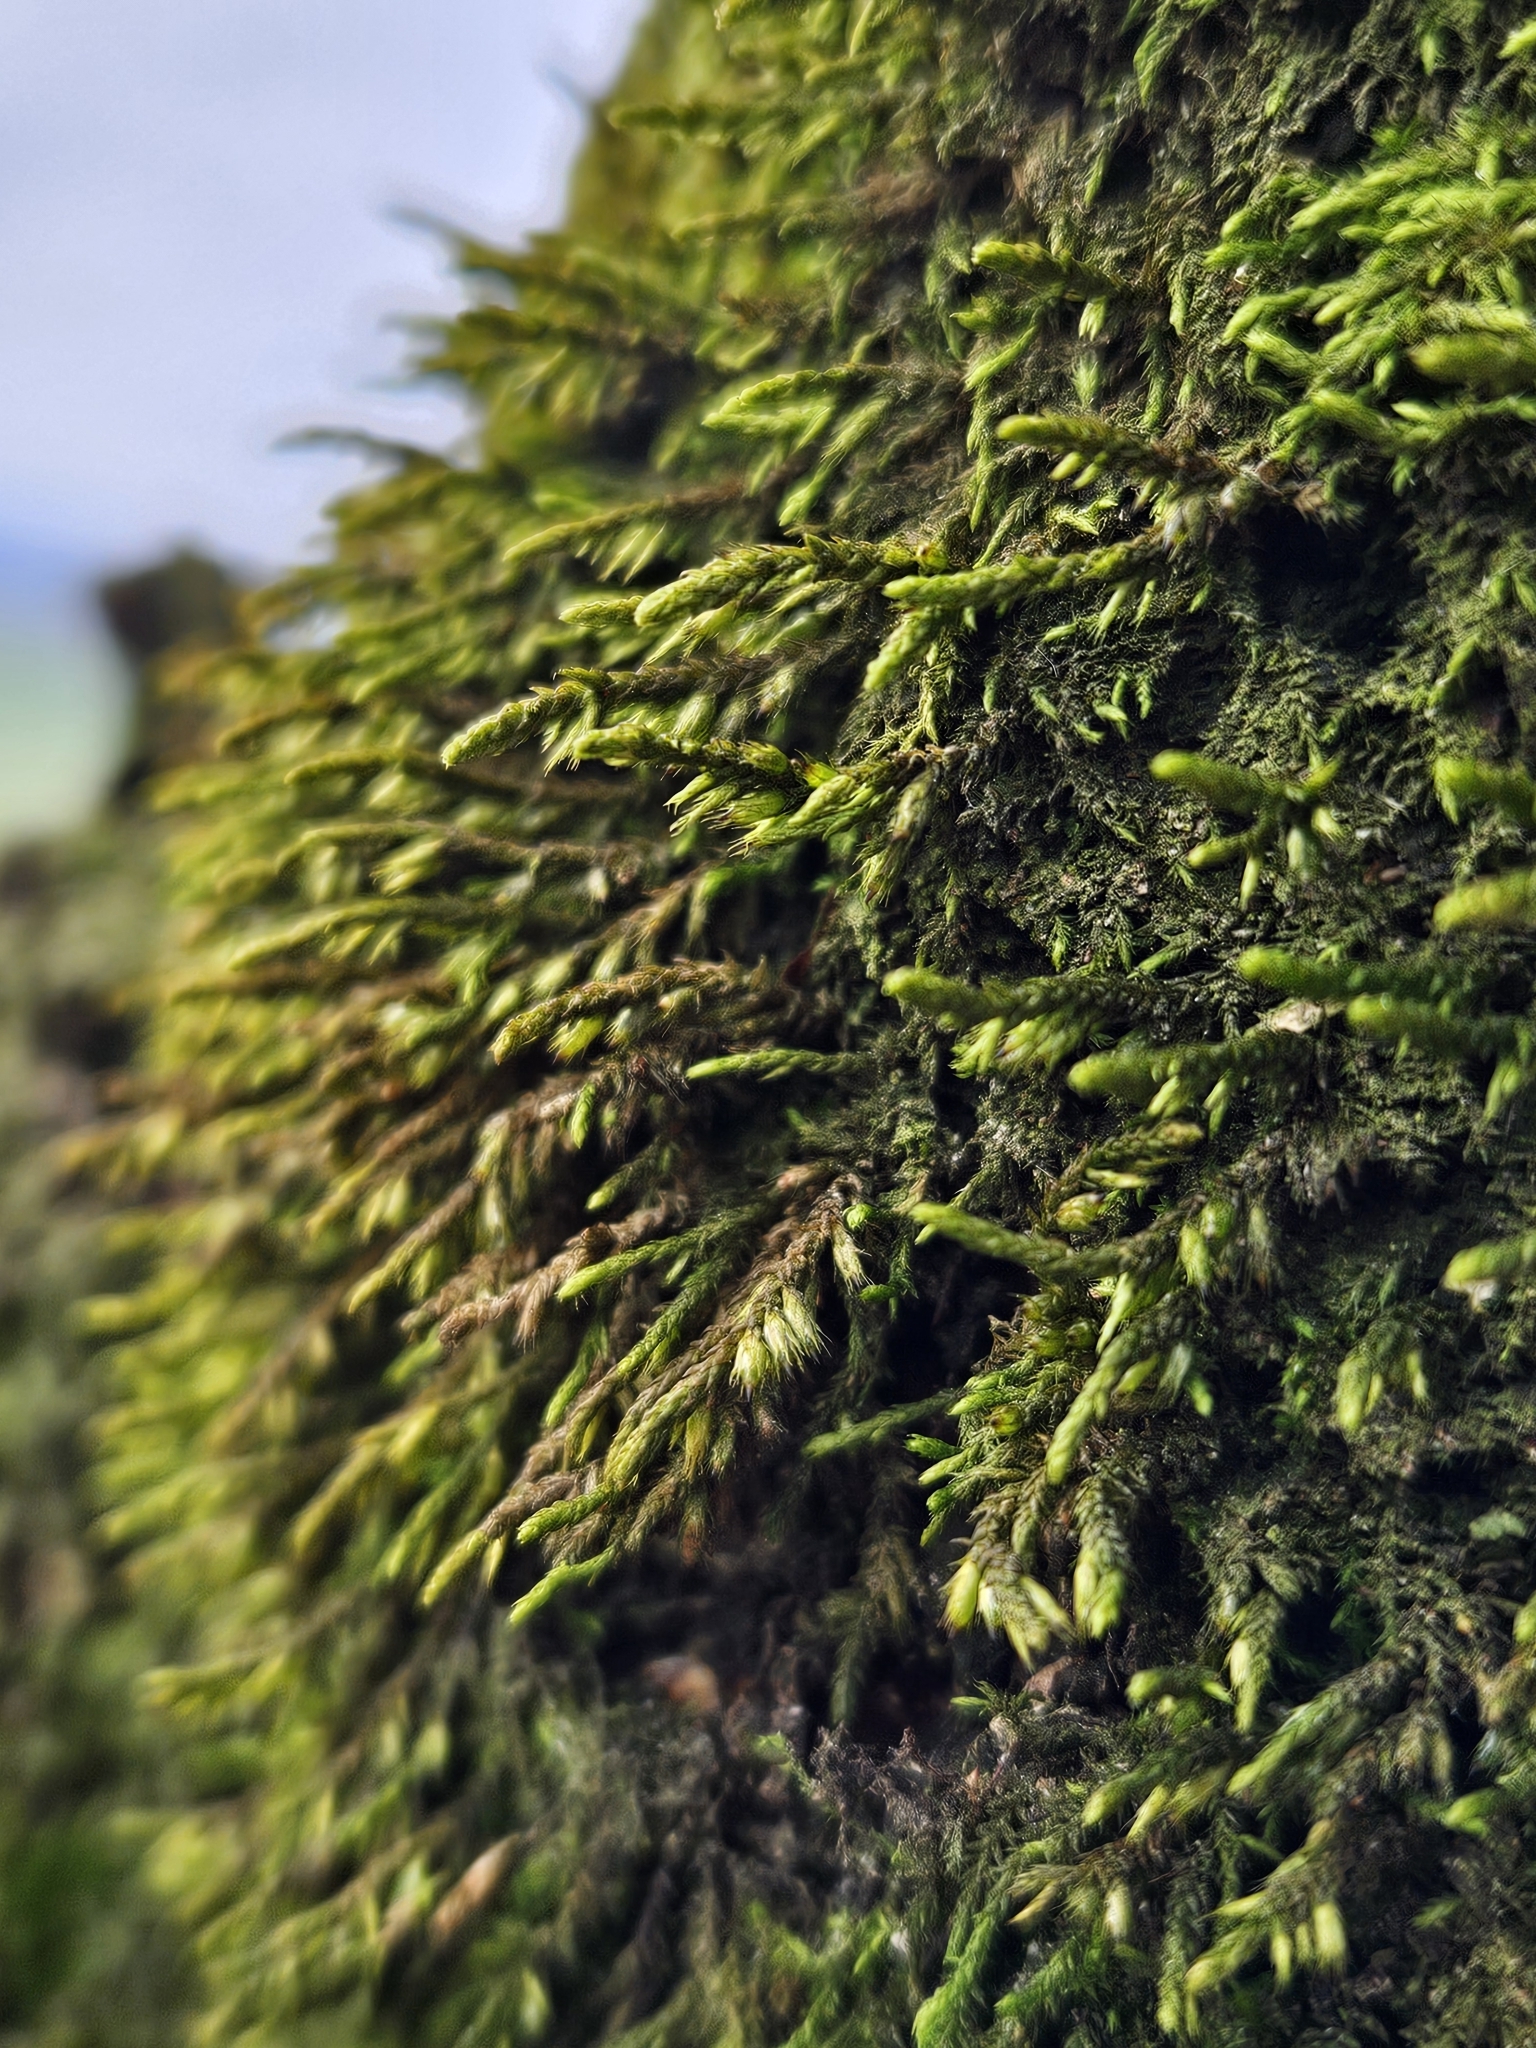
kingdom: Plantae
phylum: Bryophyta
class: Bryopsida
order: Hypnales
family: Cryphaeaceae
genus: Cryphaea
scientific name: Cryphaea heteromalla
